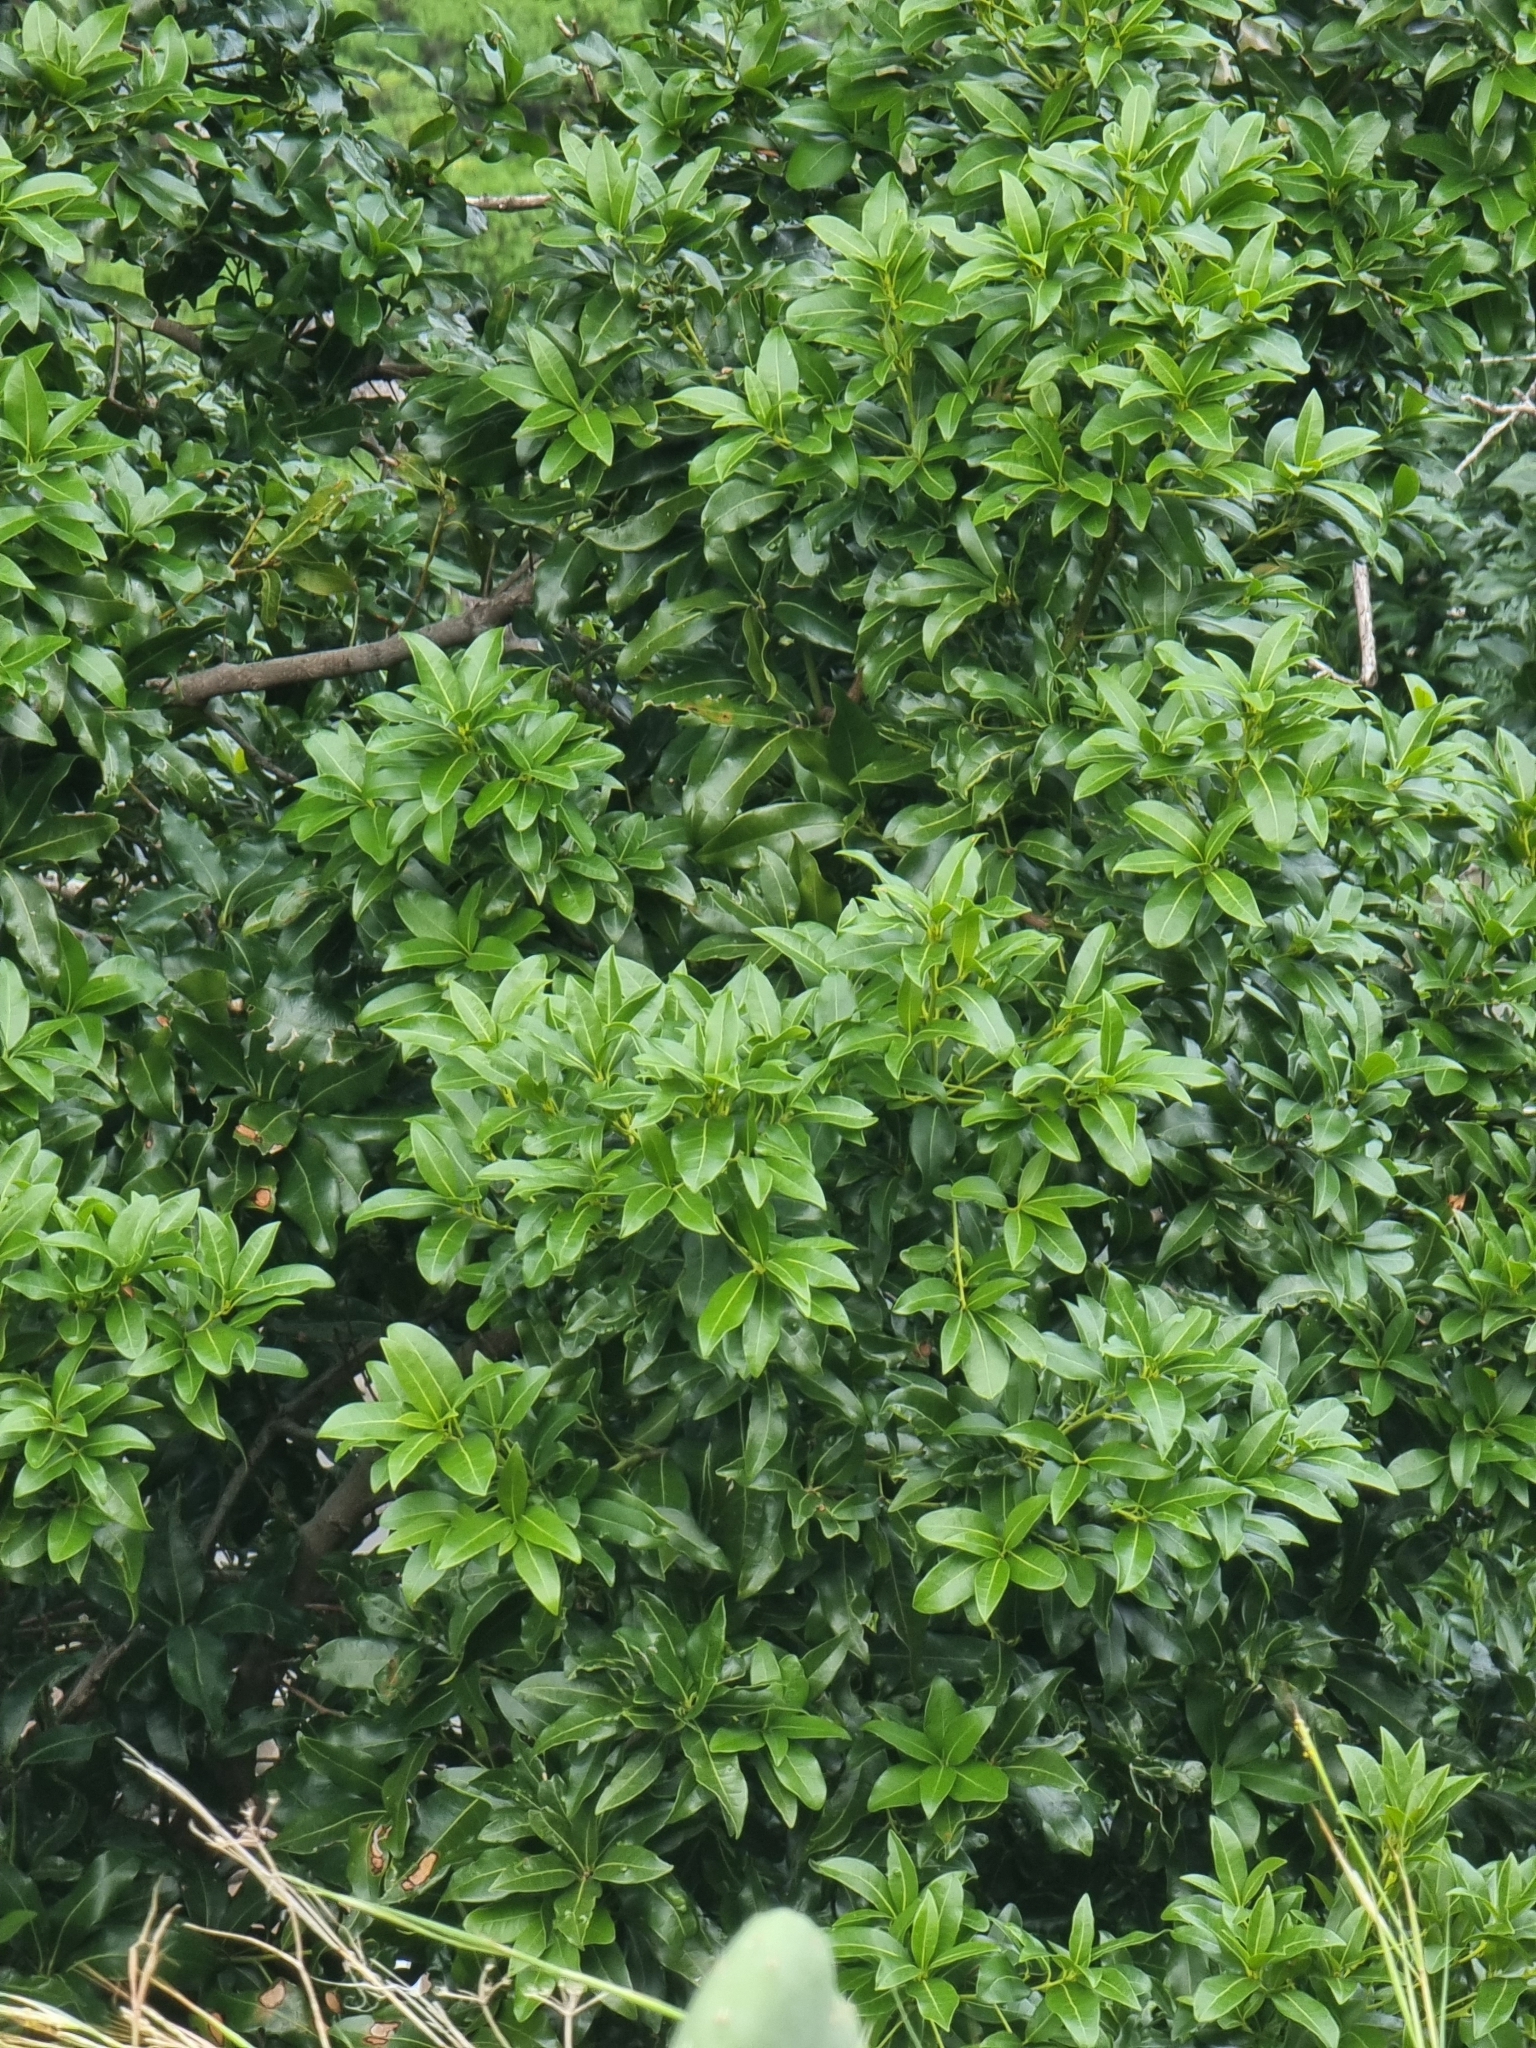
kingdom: Plantae
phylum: Tracheophyta
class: Magnoliopsida
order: Laurales
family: Lauraceae
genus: Apollonias
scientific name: Apollonias barbujana
